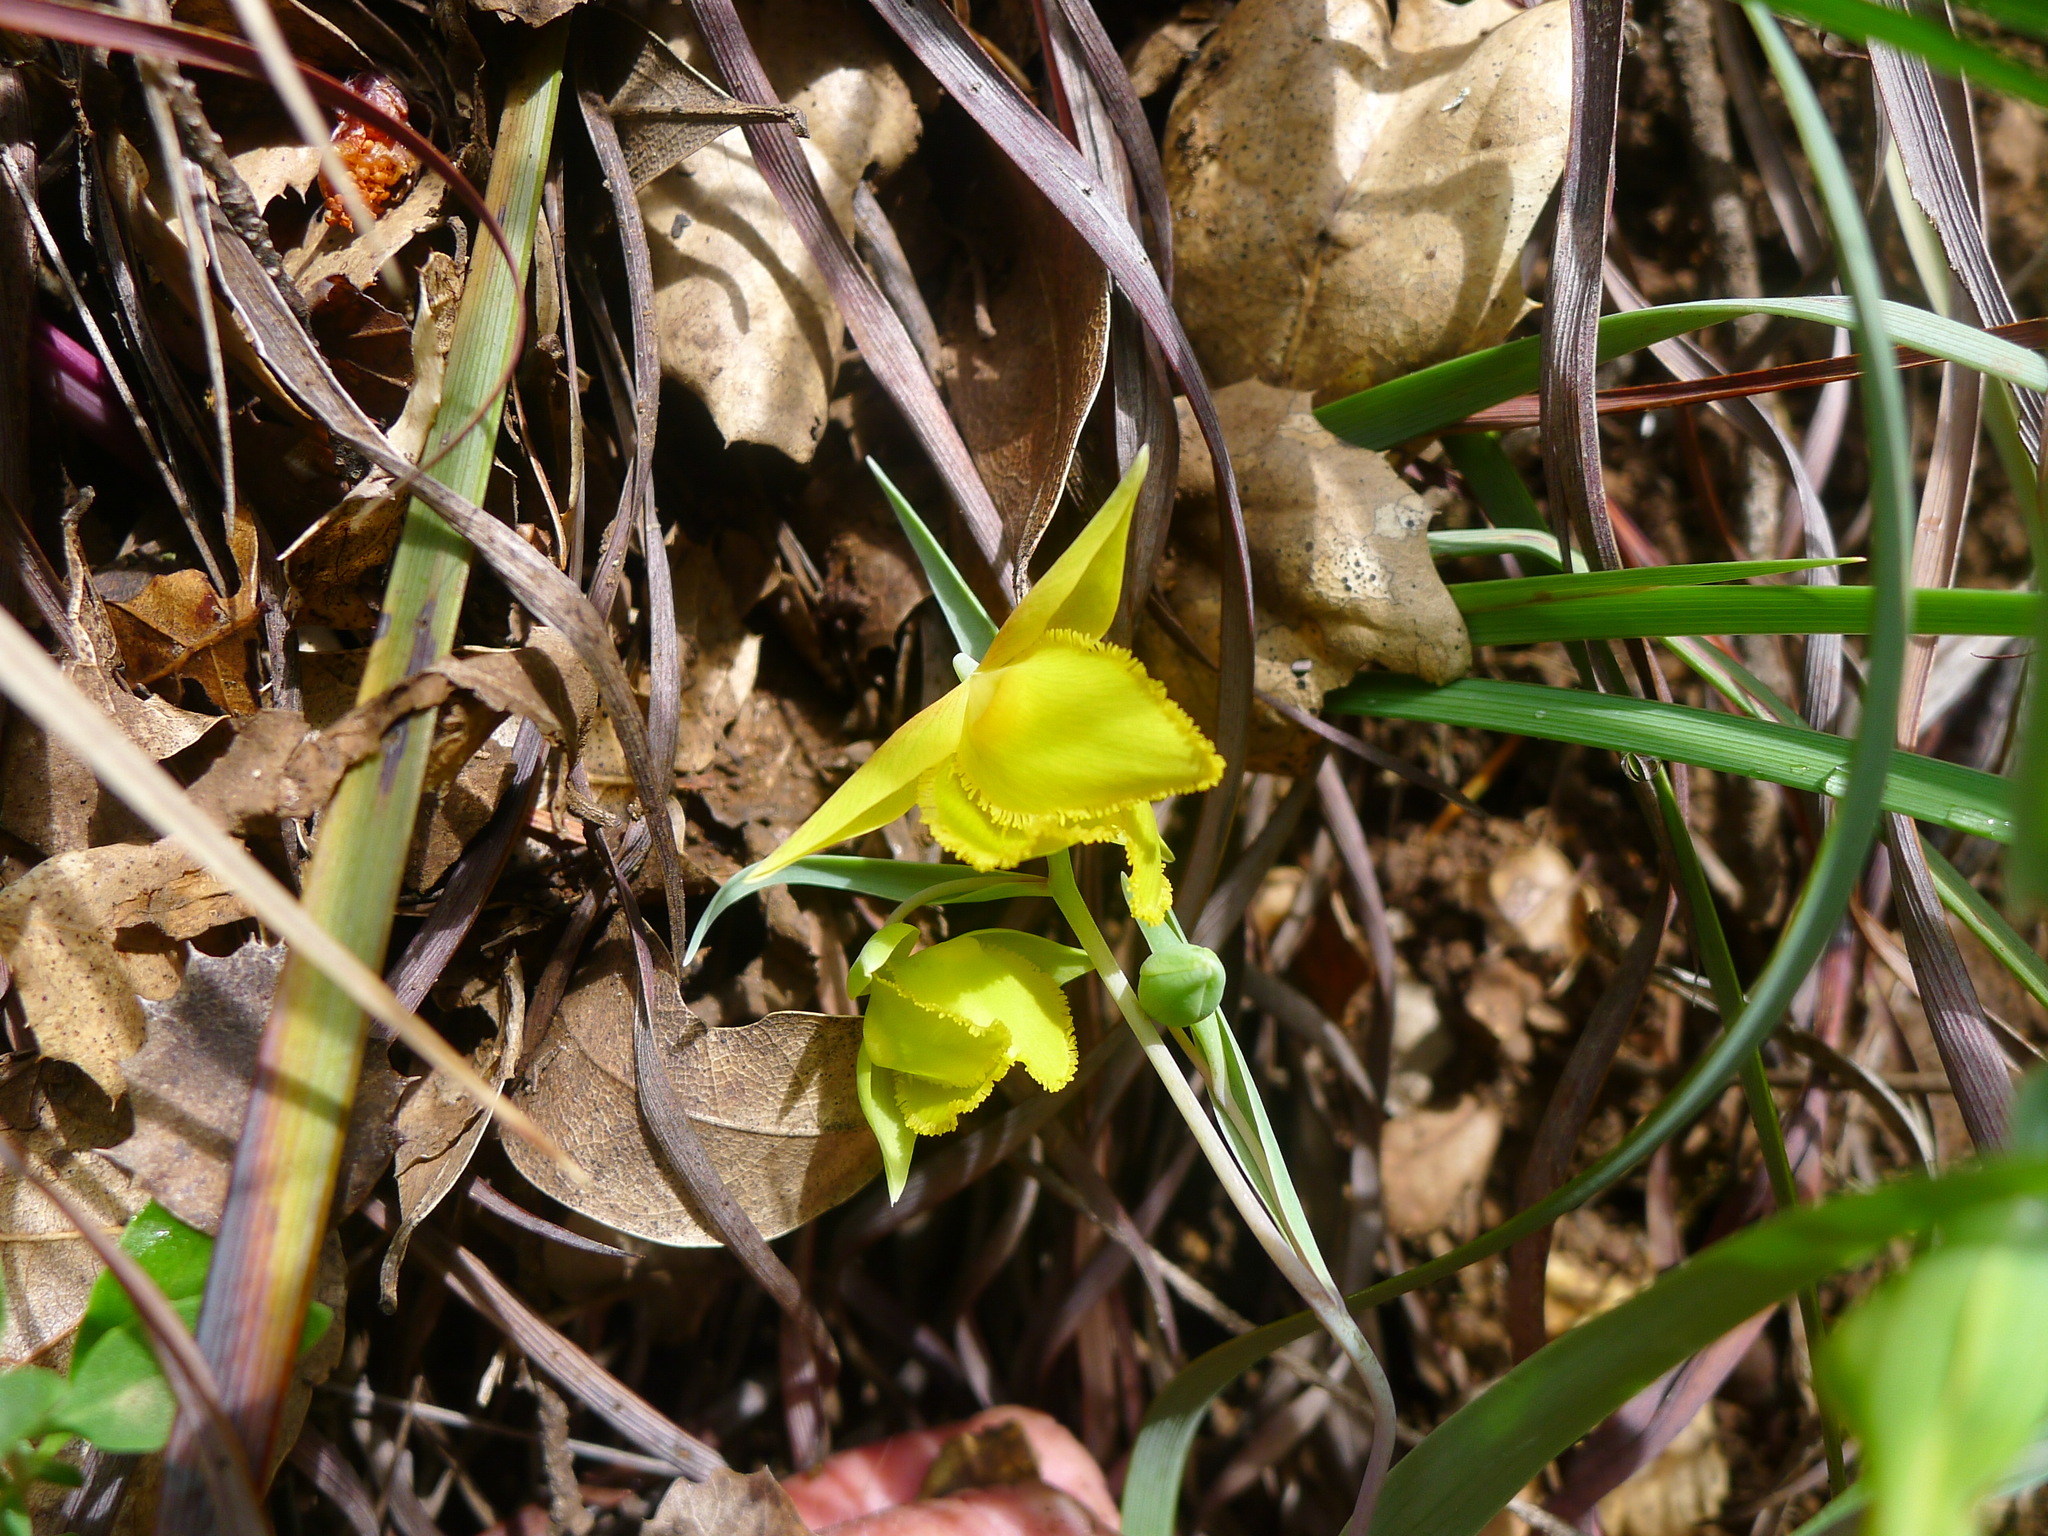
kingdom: Plantae
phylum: Tracheophyta
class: Liliopsida
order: Liliales
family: Liliaceae
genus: Calochortus
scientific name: Calochortus amabilis
